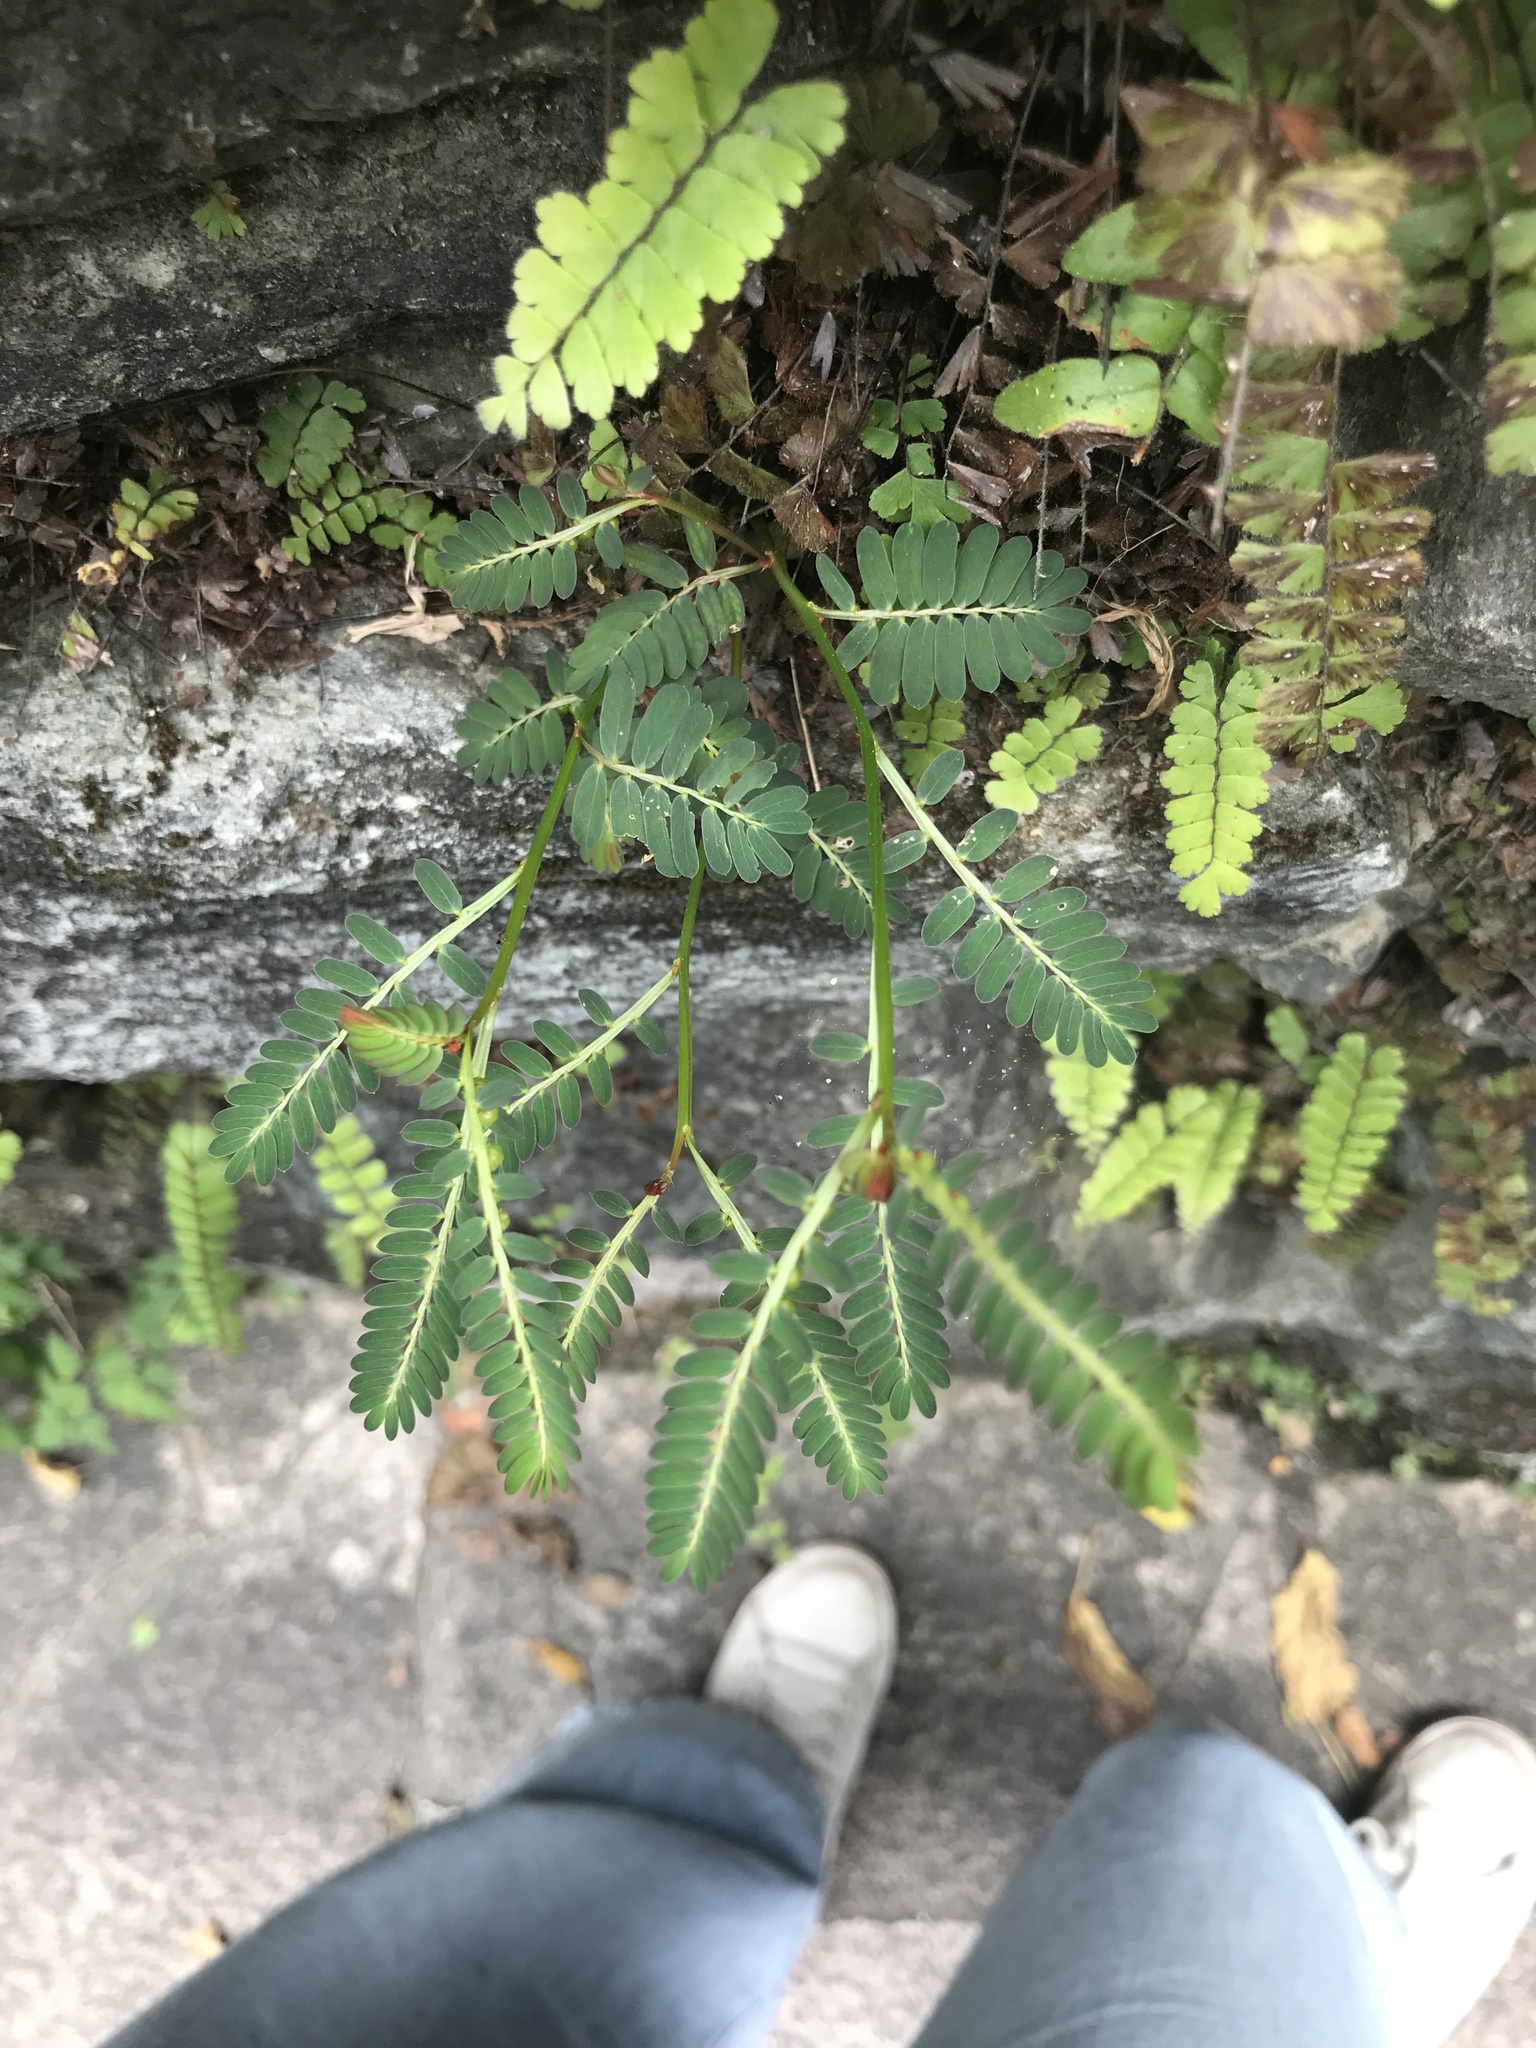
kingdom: Plantae
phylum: Tracheophyta
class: Magnoliopsida
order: Malpighiales
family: Phyllanthaceae
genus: Phyllanthus
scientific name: Phyllanthus urinaria
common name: Chamber bitter
